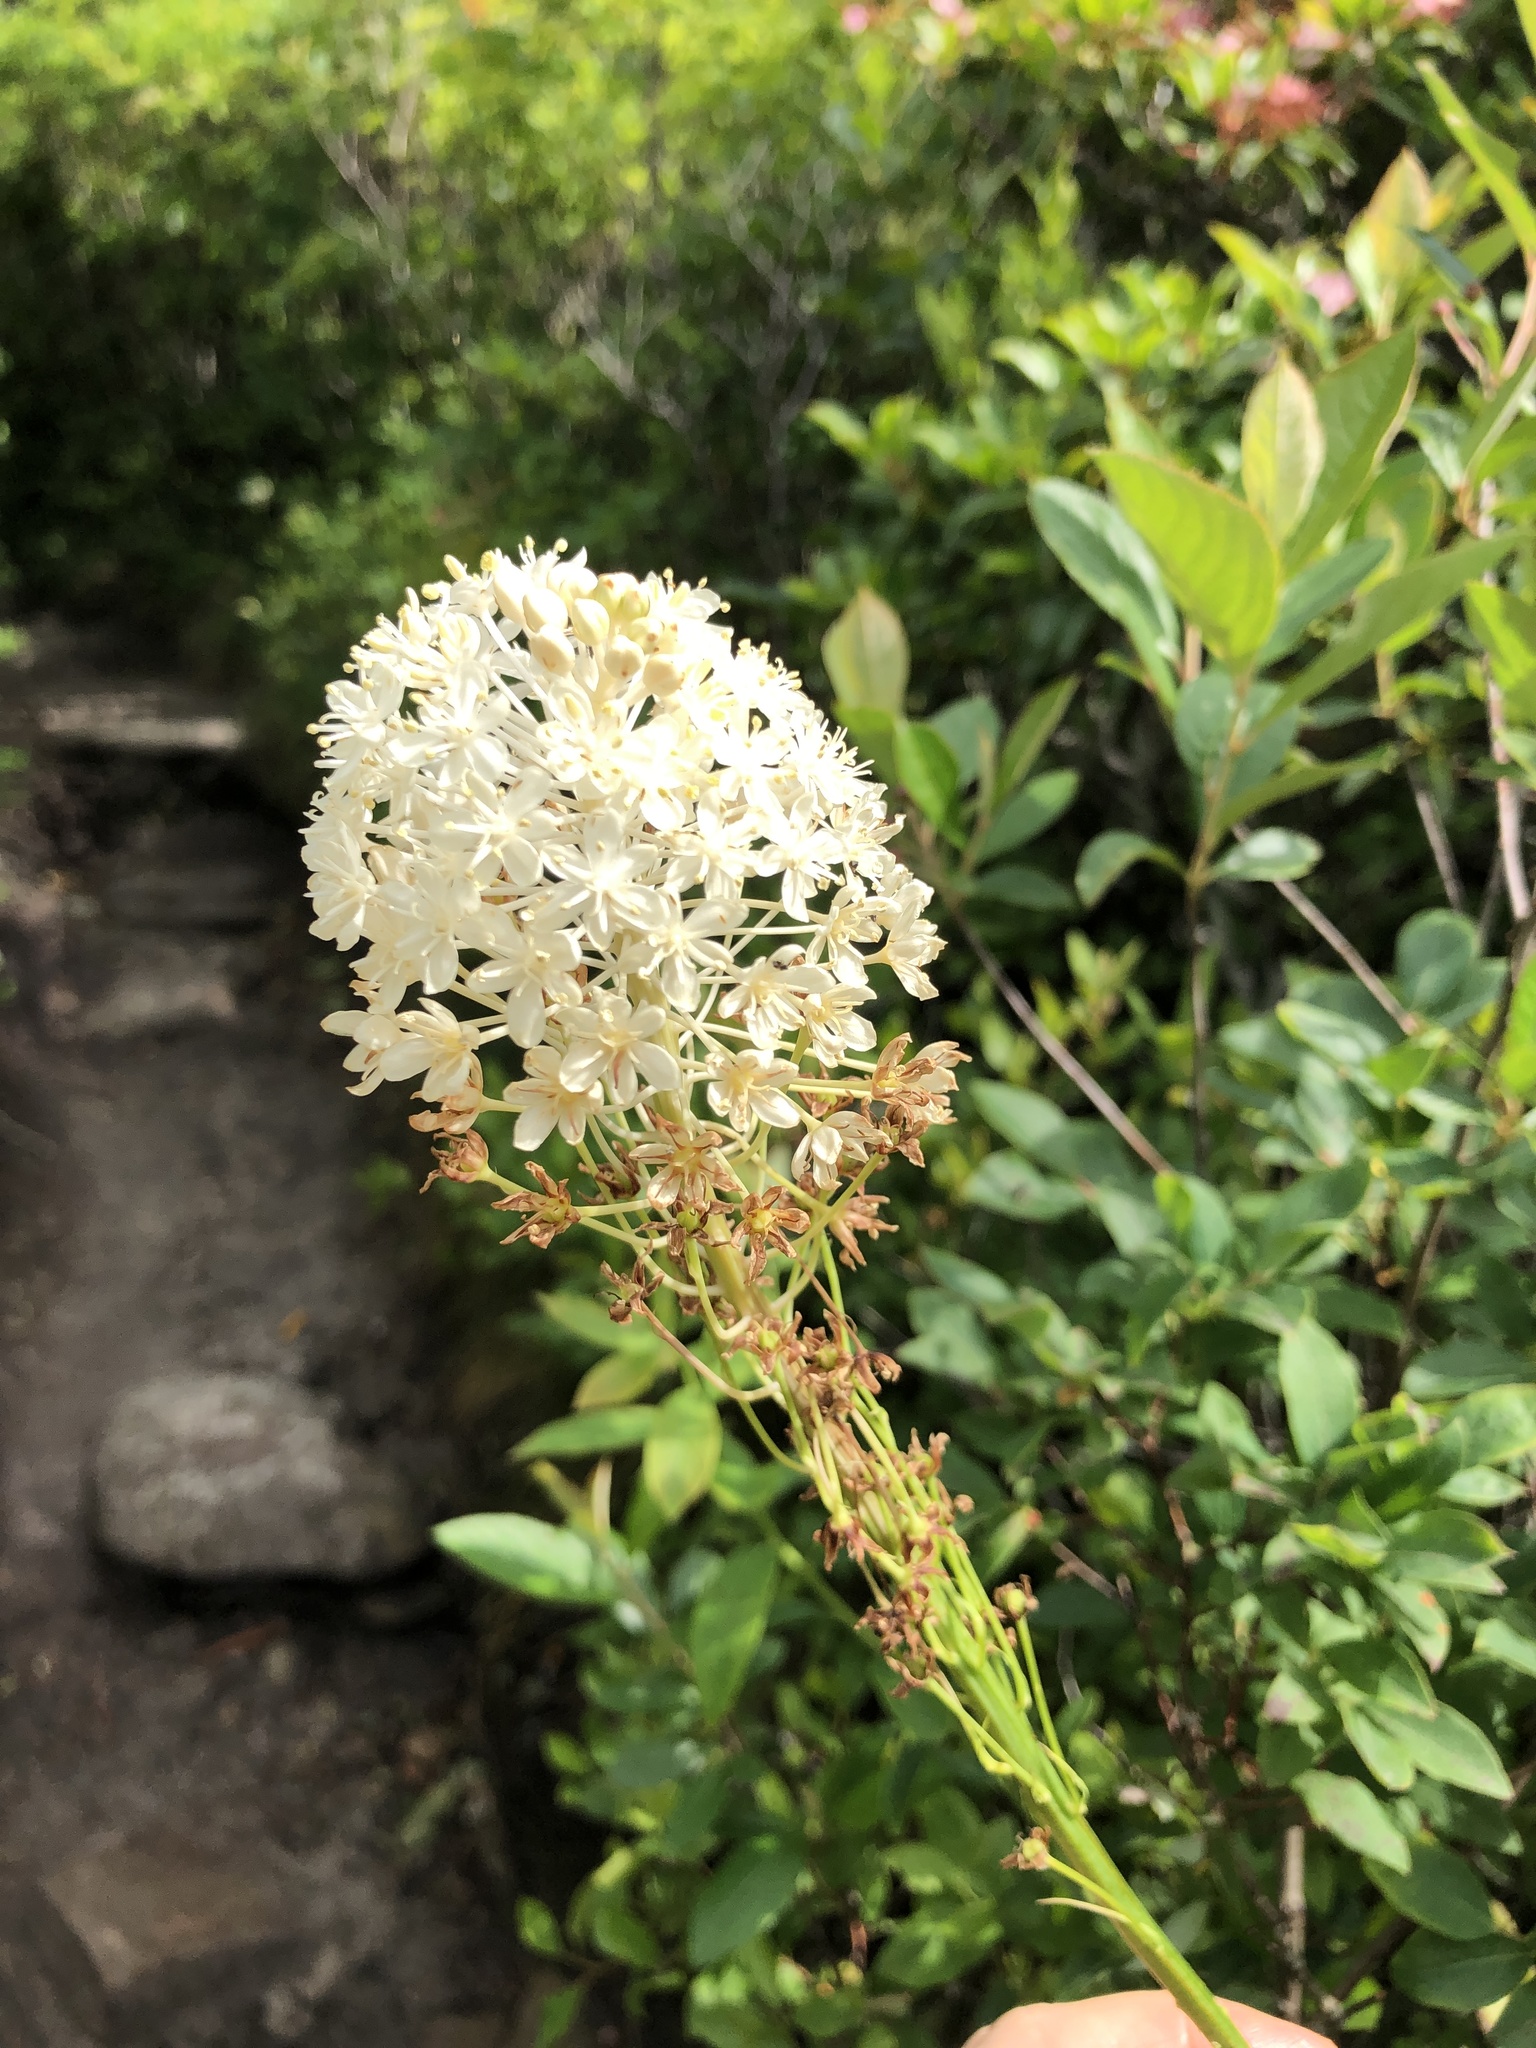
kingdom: Plantae
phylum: Tracheophyta
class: Liliopsida
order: Liliales
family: Melanthiaceae
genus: Xerophyllum
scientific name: Xerophyllum asphodeloides
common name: Mountain-asphodel
